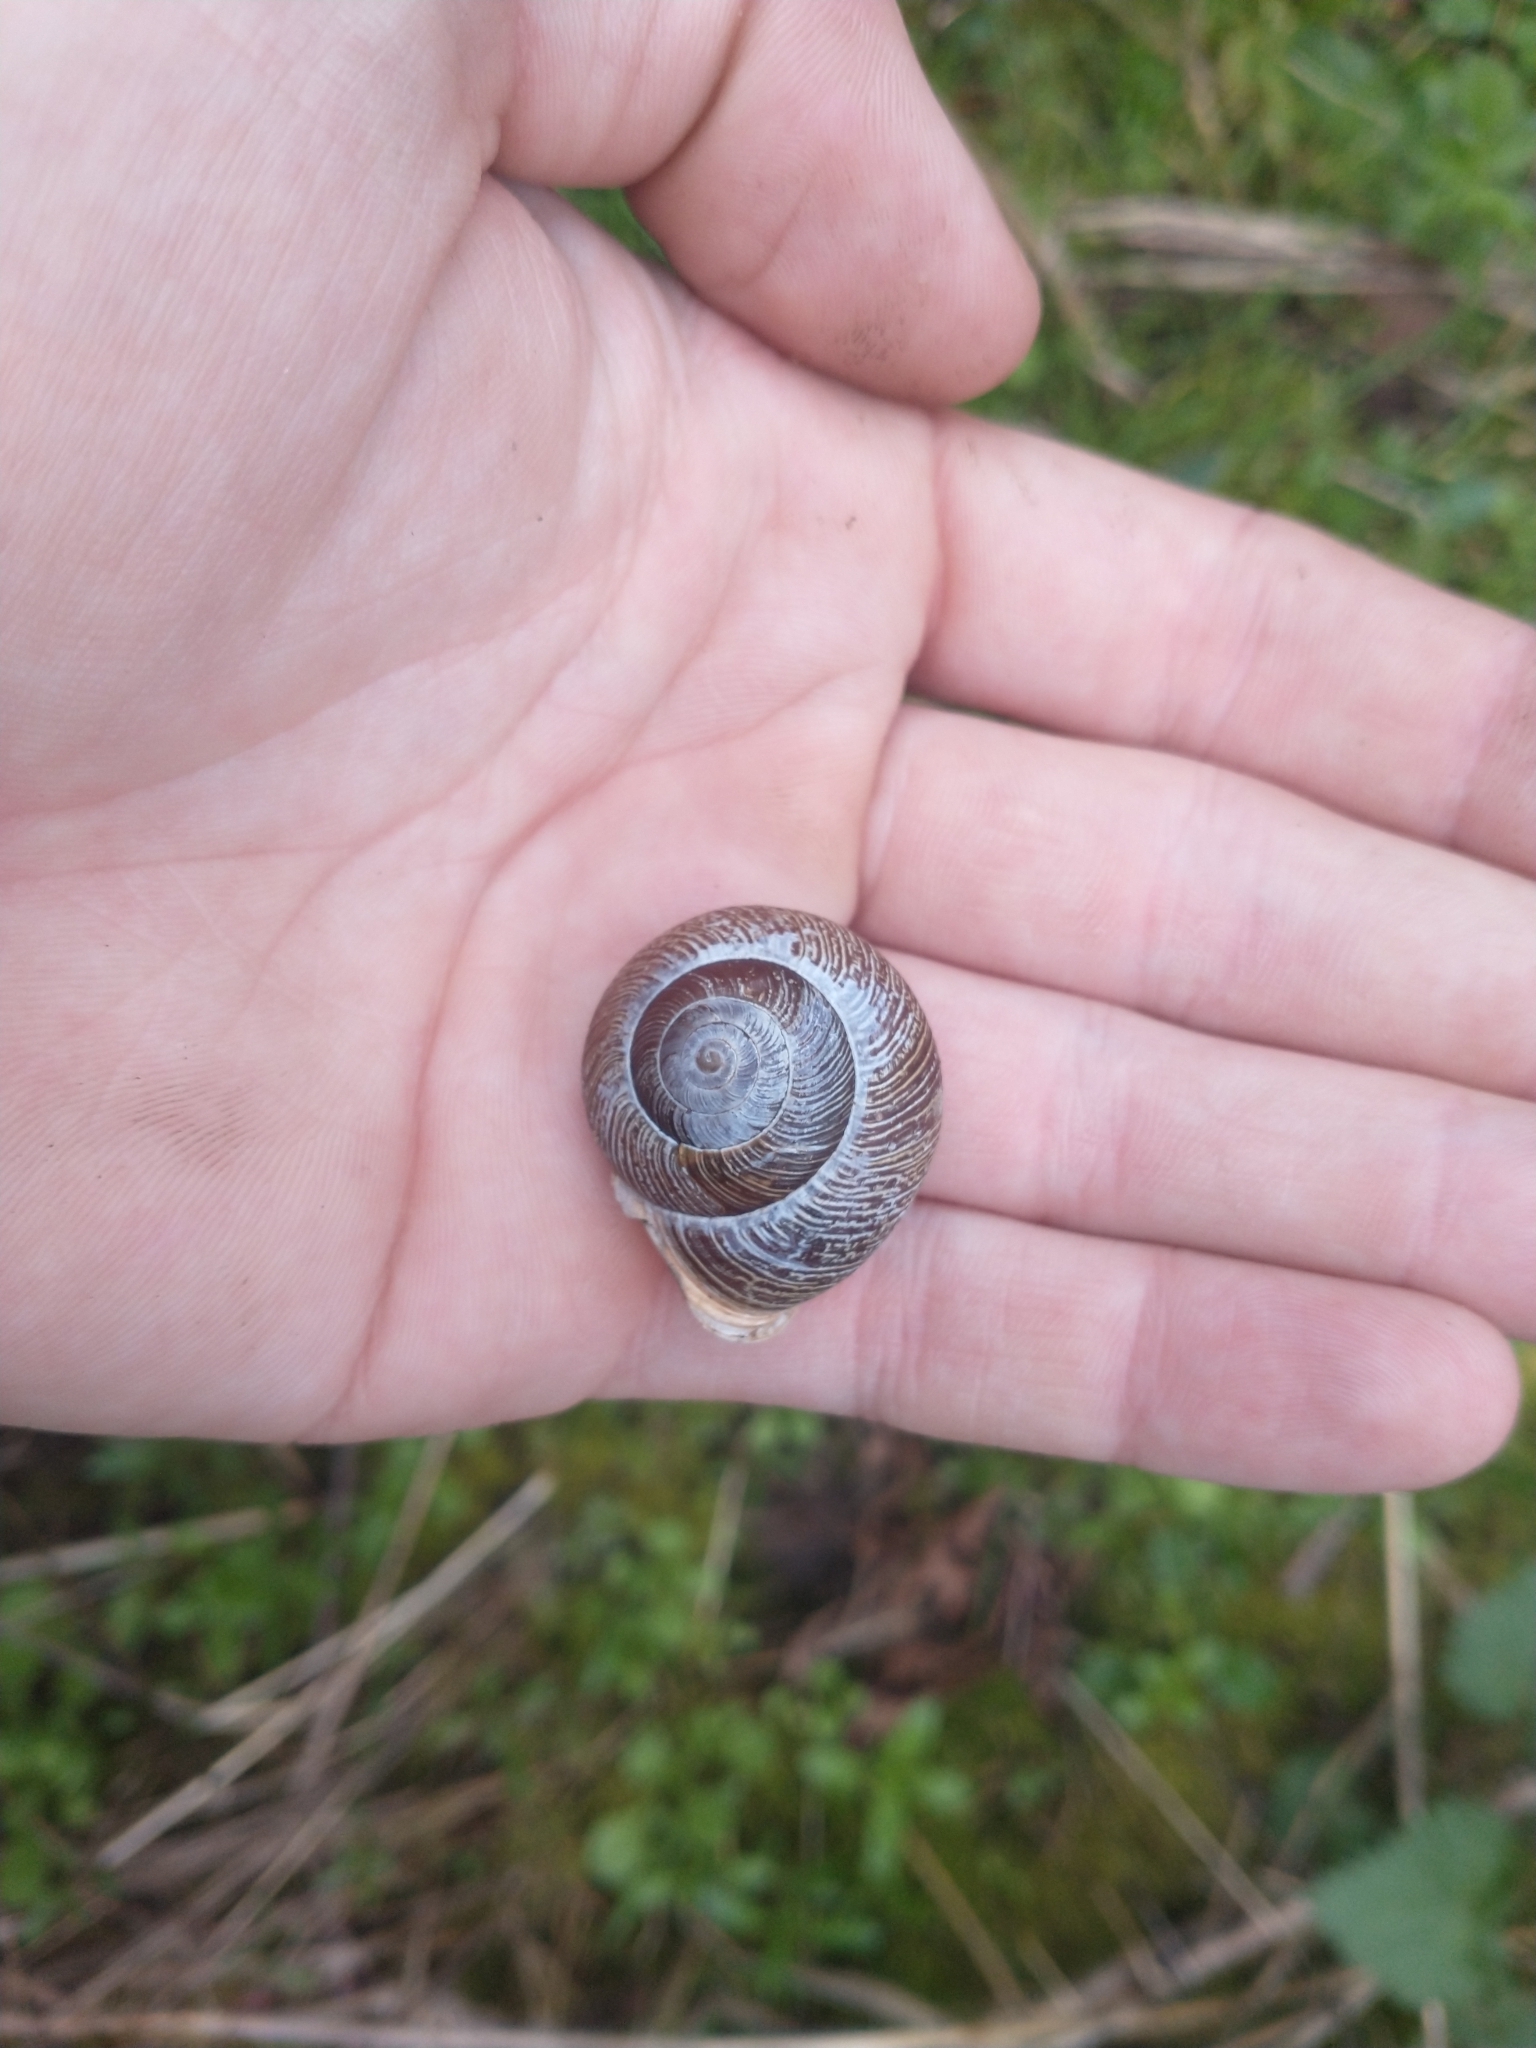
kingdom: Animalia
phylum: Mollusca
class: Gastropoda
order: Stylommatophora
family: Polygyridae
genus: Allogona
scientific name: Allogona townsendiana
